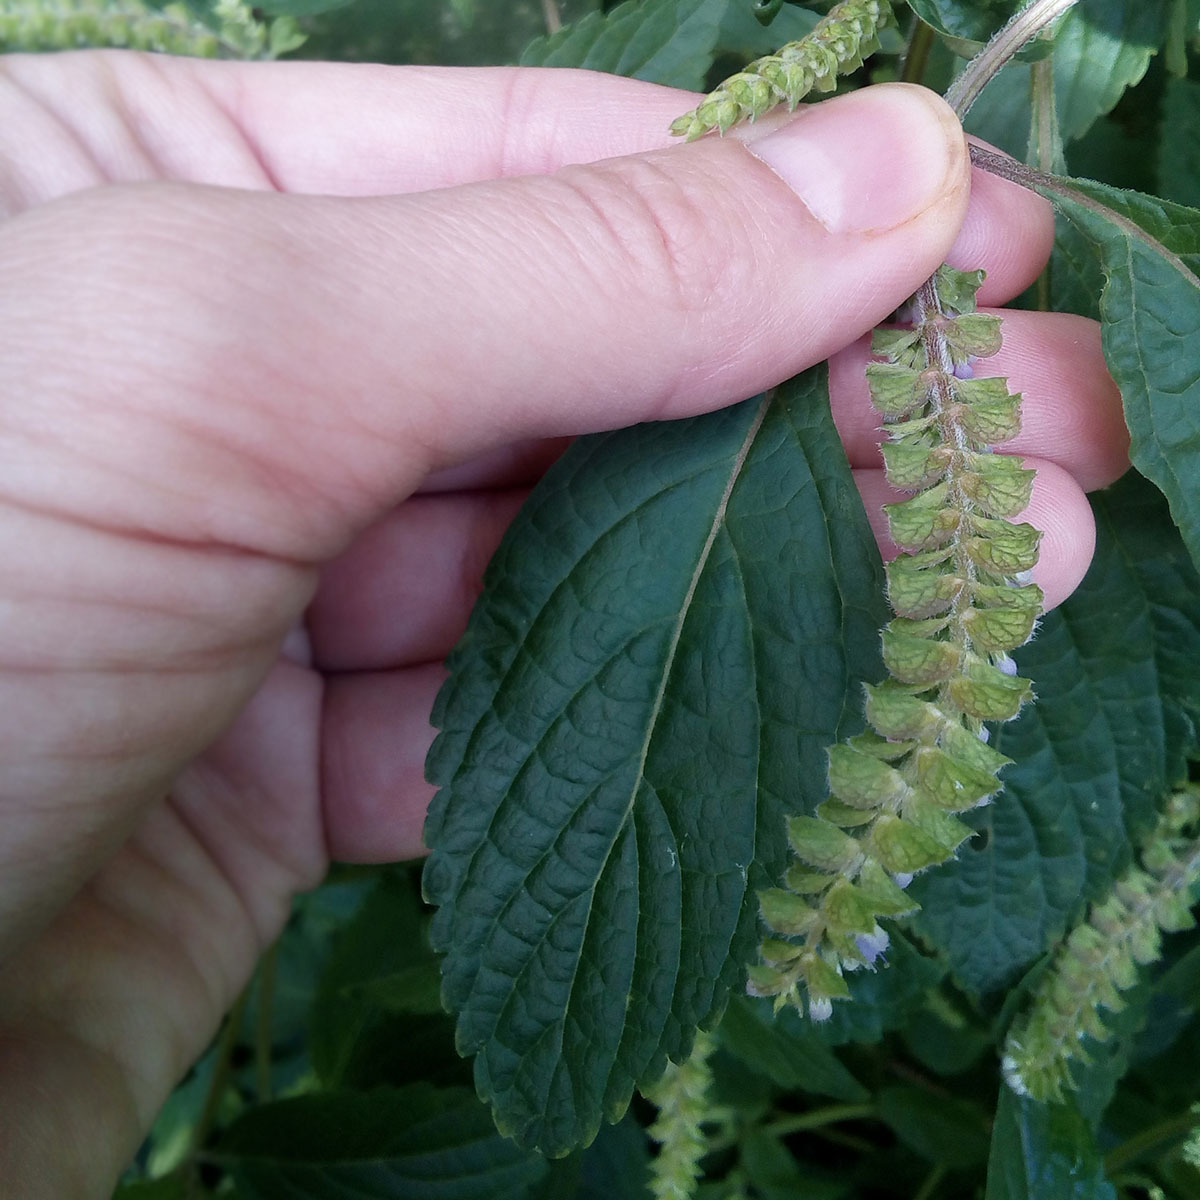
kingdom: Plantae
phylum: Tracheophyta
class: Magnoliopsida
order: Lamiales
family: Lamiaceae
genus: Elsholtzia
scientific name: Elsholtzia ciliata
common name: Ciliate elsholtzia
